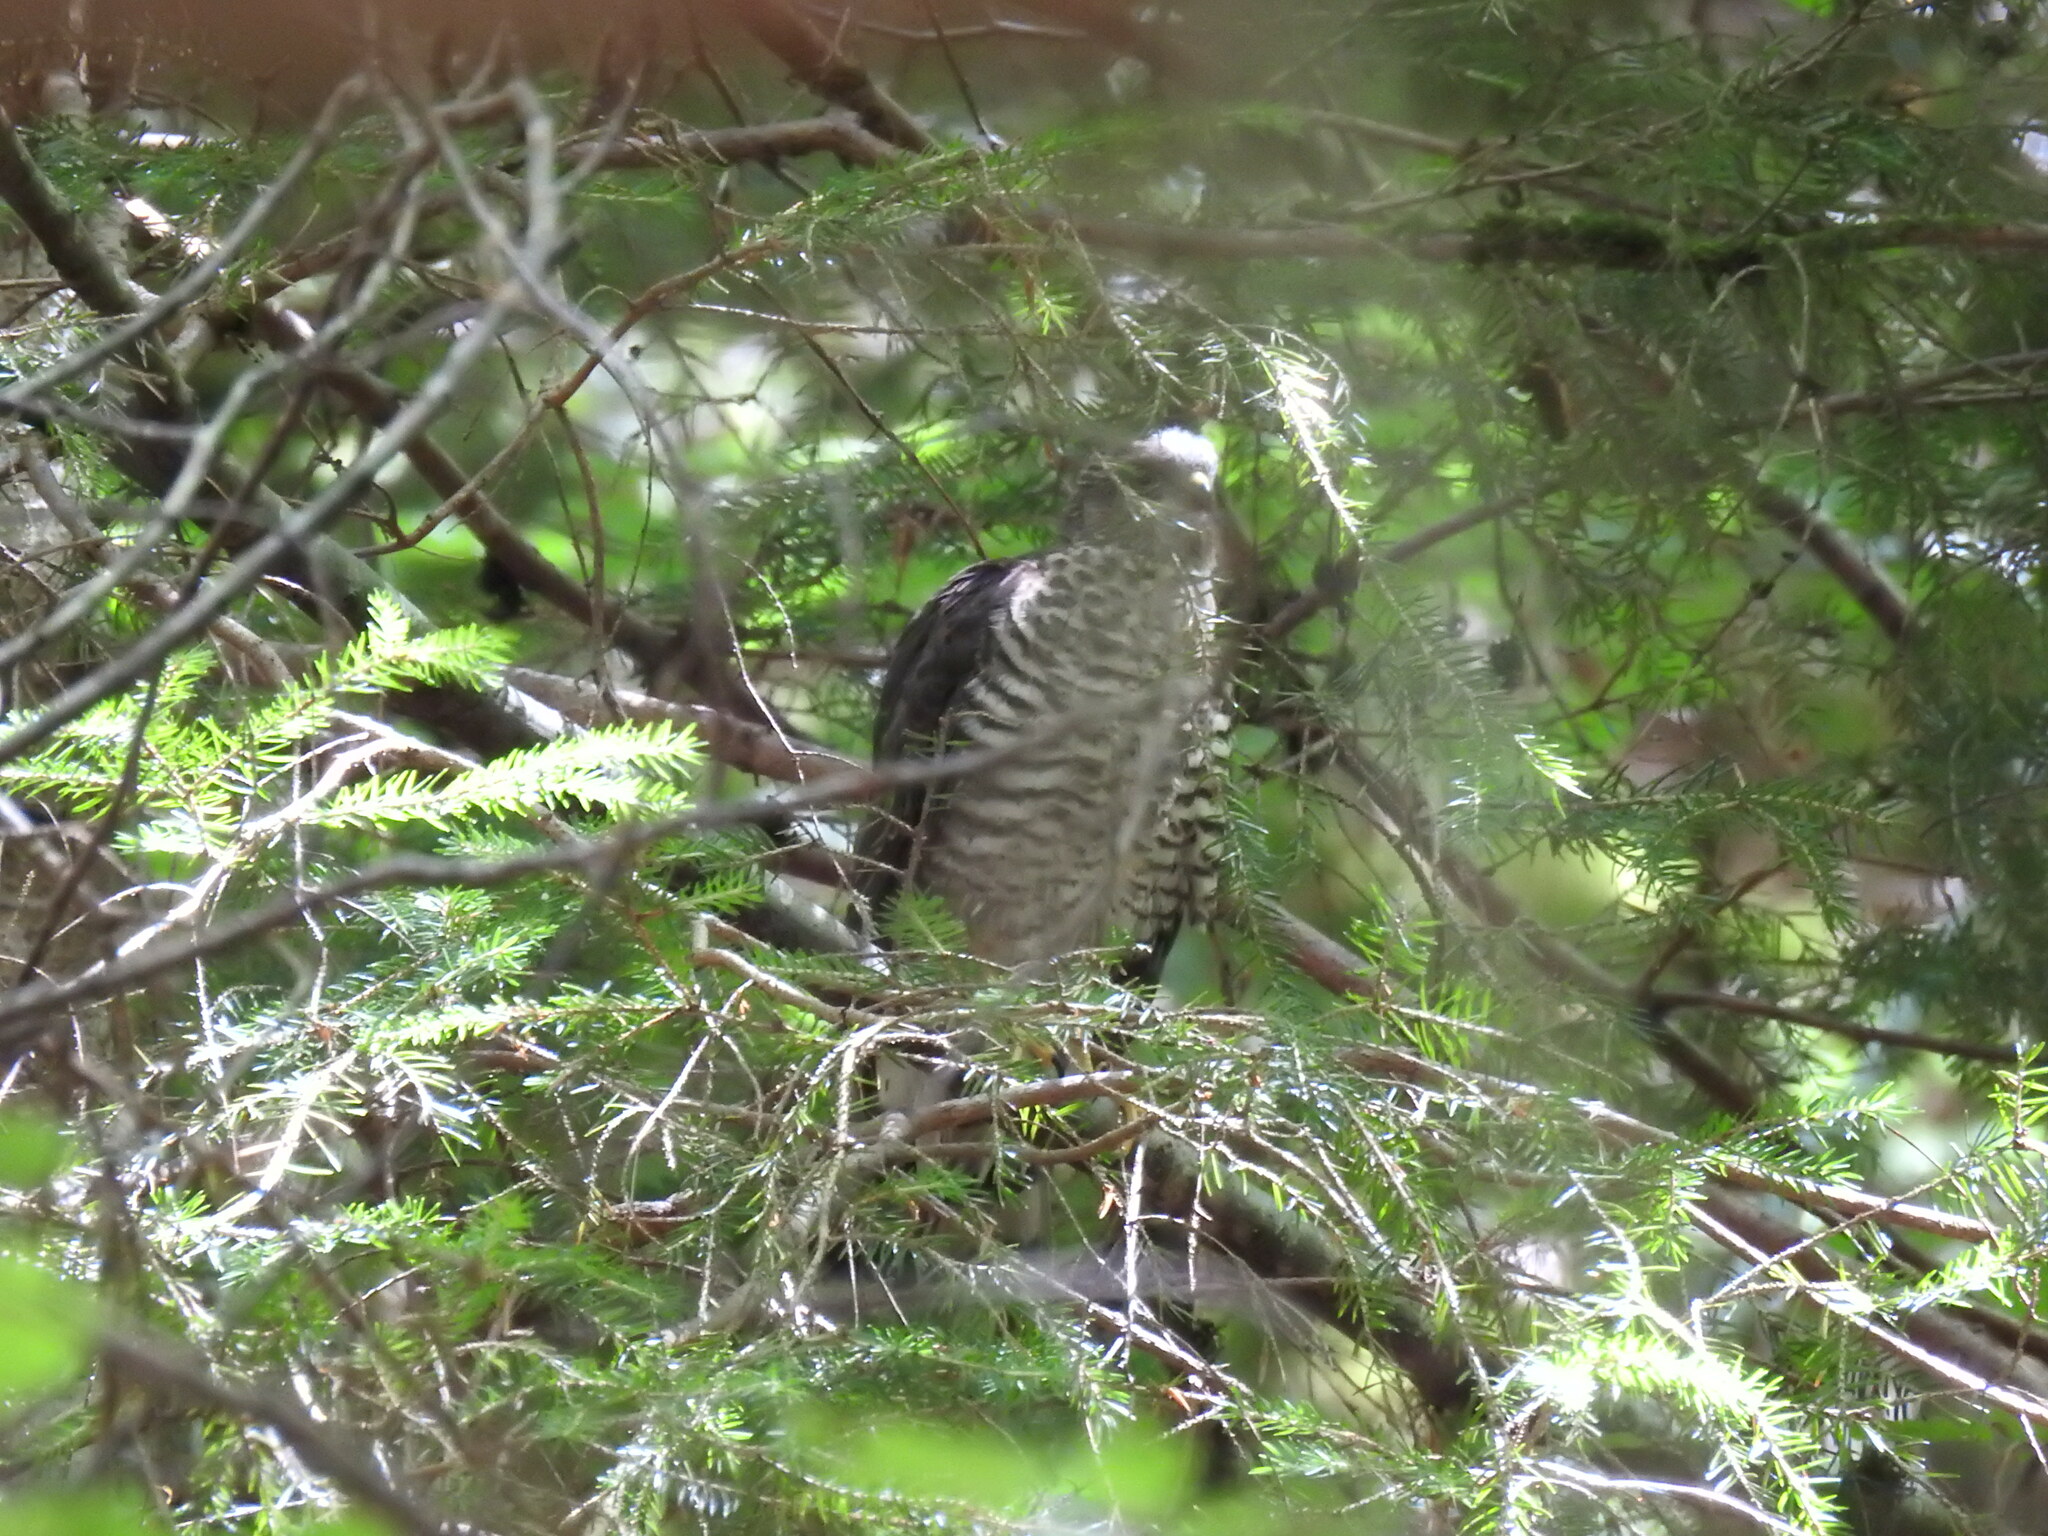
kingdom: Animalia
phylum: Chordata
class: Aves
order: Accipitriformes
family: Accipitridae
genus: Accipiter
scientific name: Accipiter nisus
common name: Eurasian sparrowhawk
